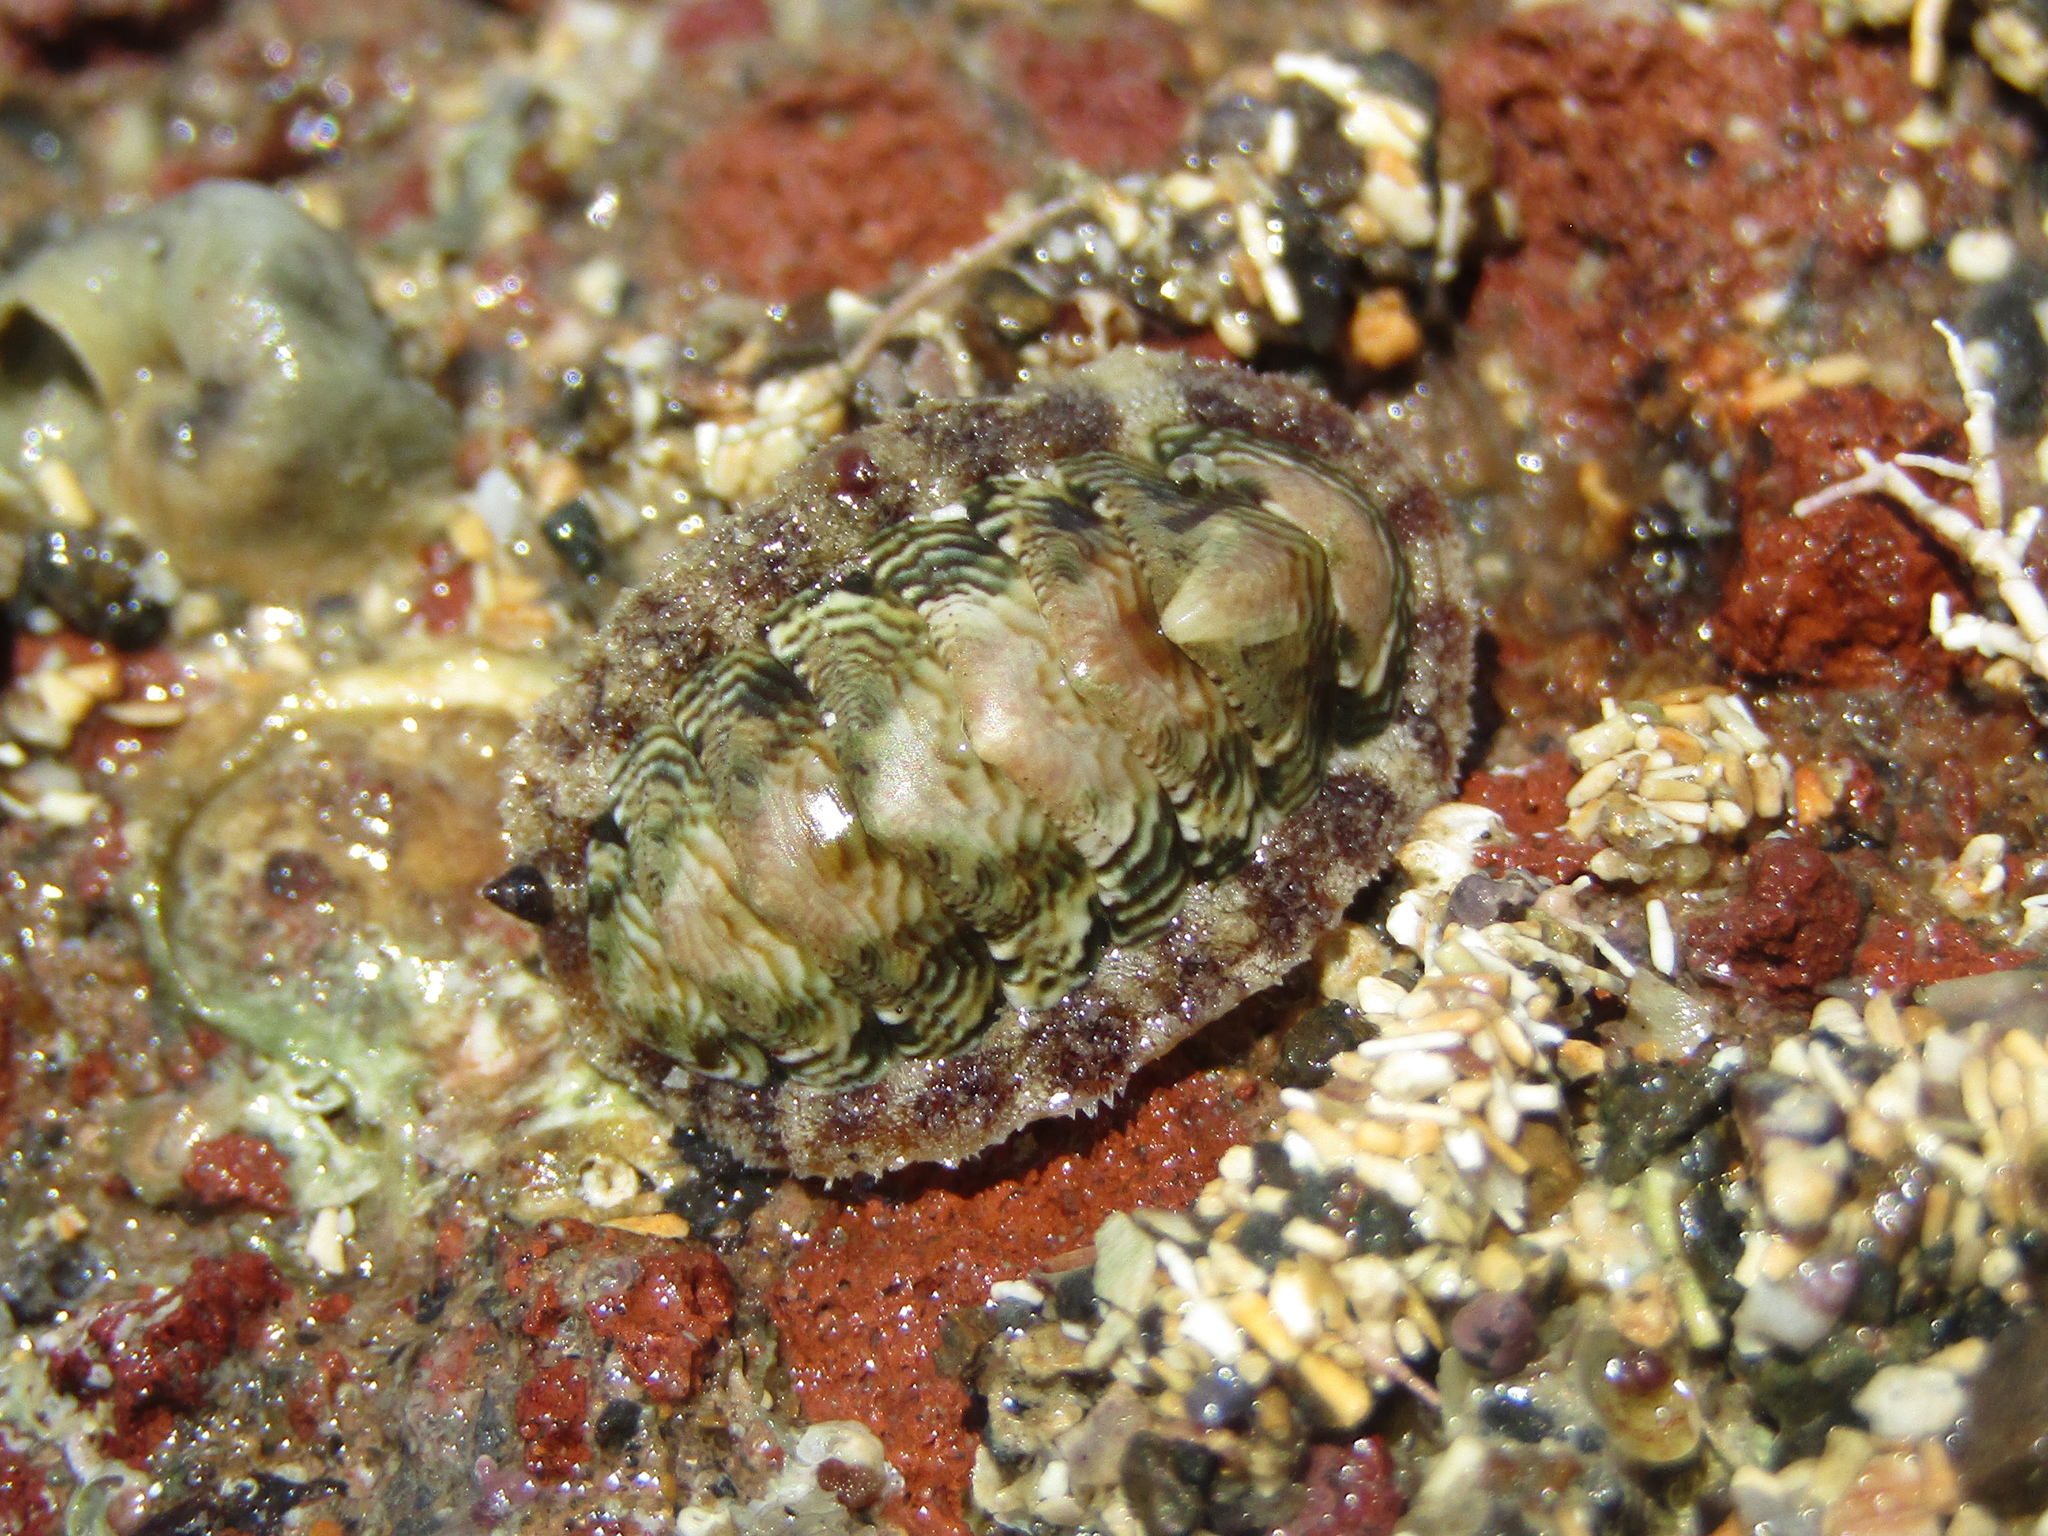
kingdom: Animalia
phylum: Mollusca
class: Polyplacophora
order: Chitonida
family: Chitonidae
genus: Onithochiton
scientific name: Onithochiton neglectus
